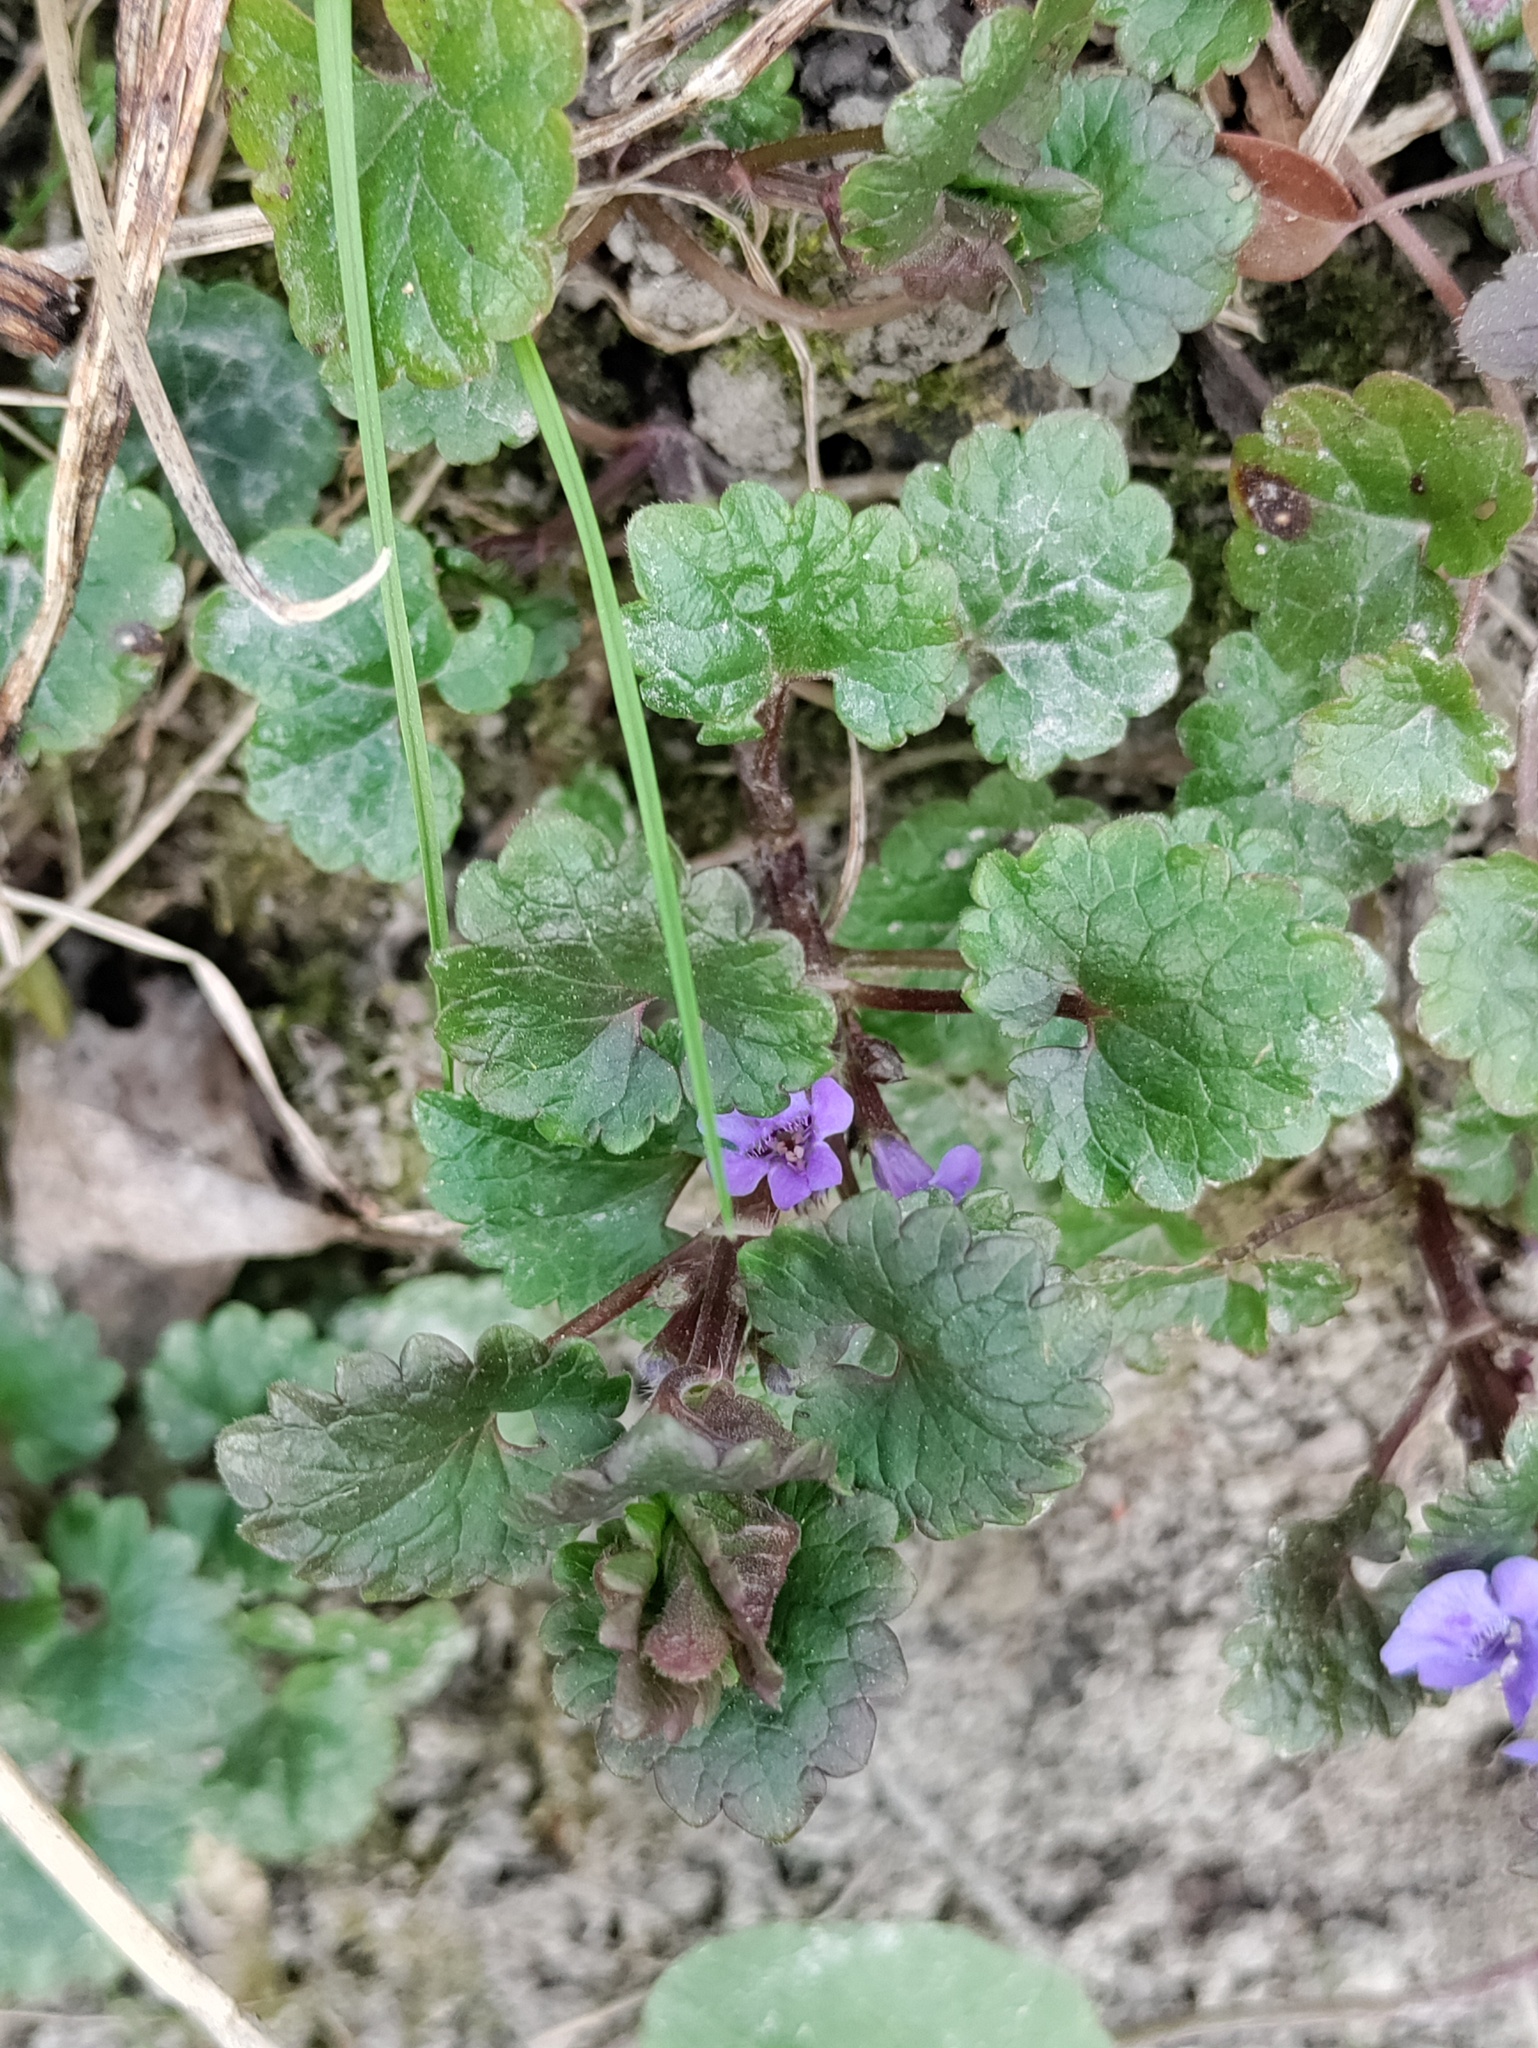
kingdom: Plantae
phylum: Tracheophyta
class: Magnoliopsida
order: Lamiales
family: Lamiaceae
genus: Glechoma
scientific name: Glechoma hederacea
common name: Ground ivy
